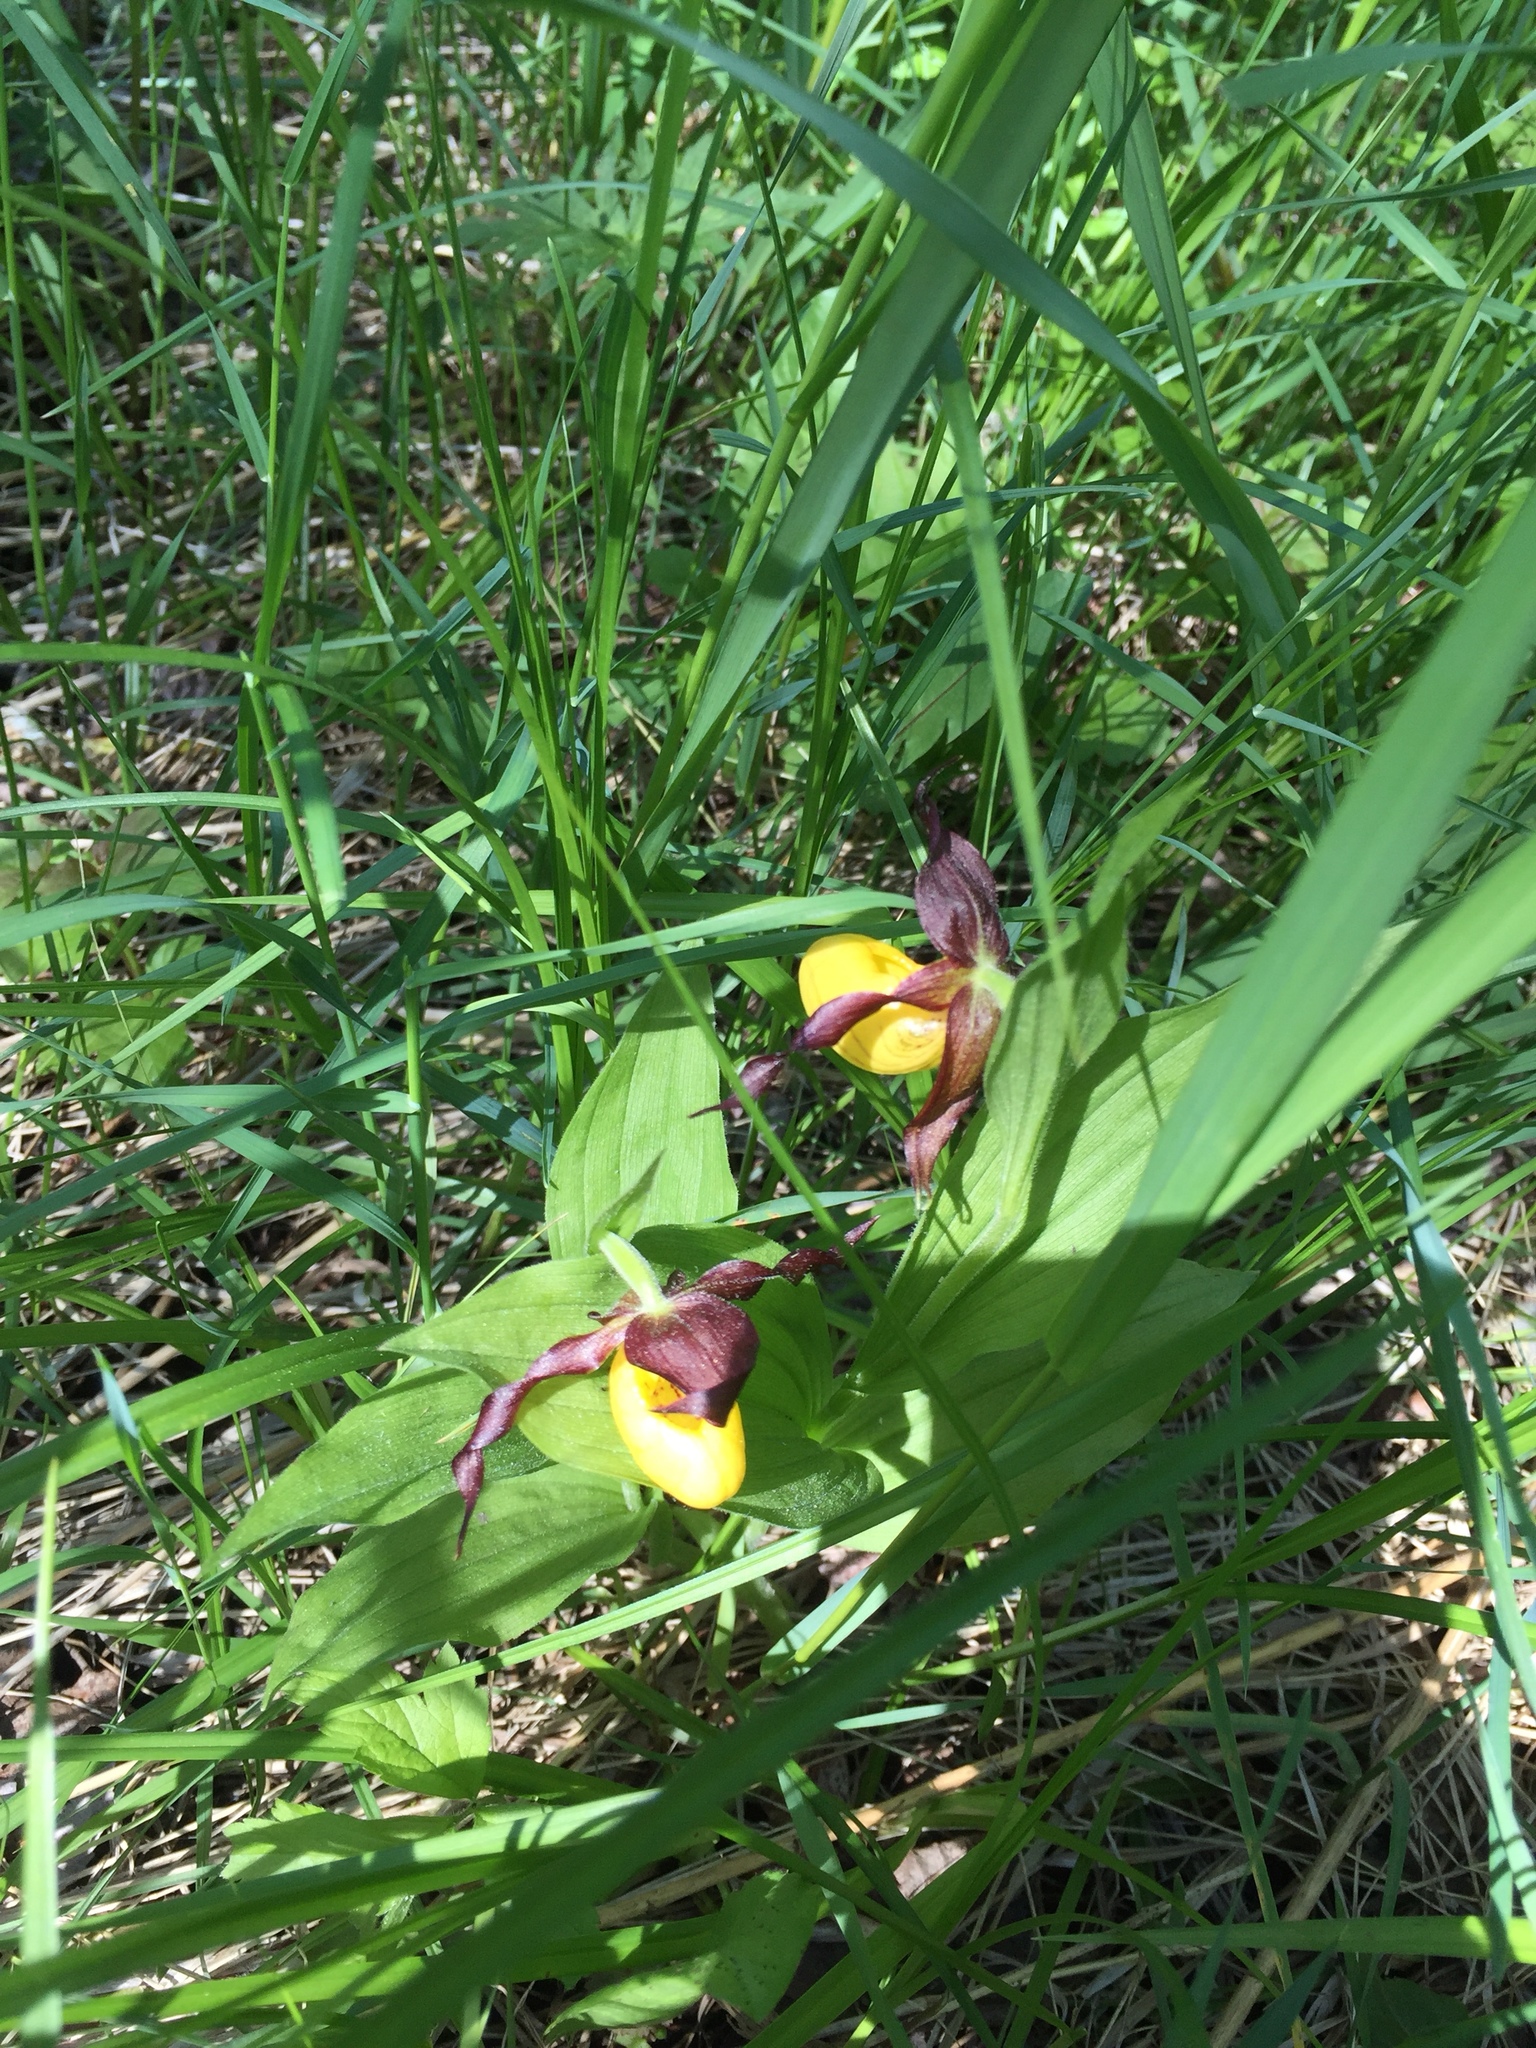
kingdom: Plantae
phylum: Tracheophyta
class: Liliopsida
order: Asparagales
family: Orchidaceae
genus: Cypripedium
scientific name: Cypripedium parviflorum
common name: American yellow lady's-slipper
